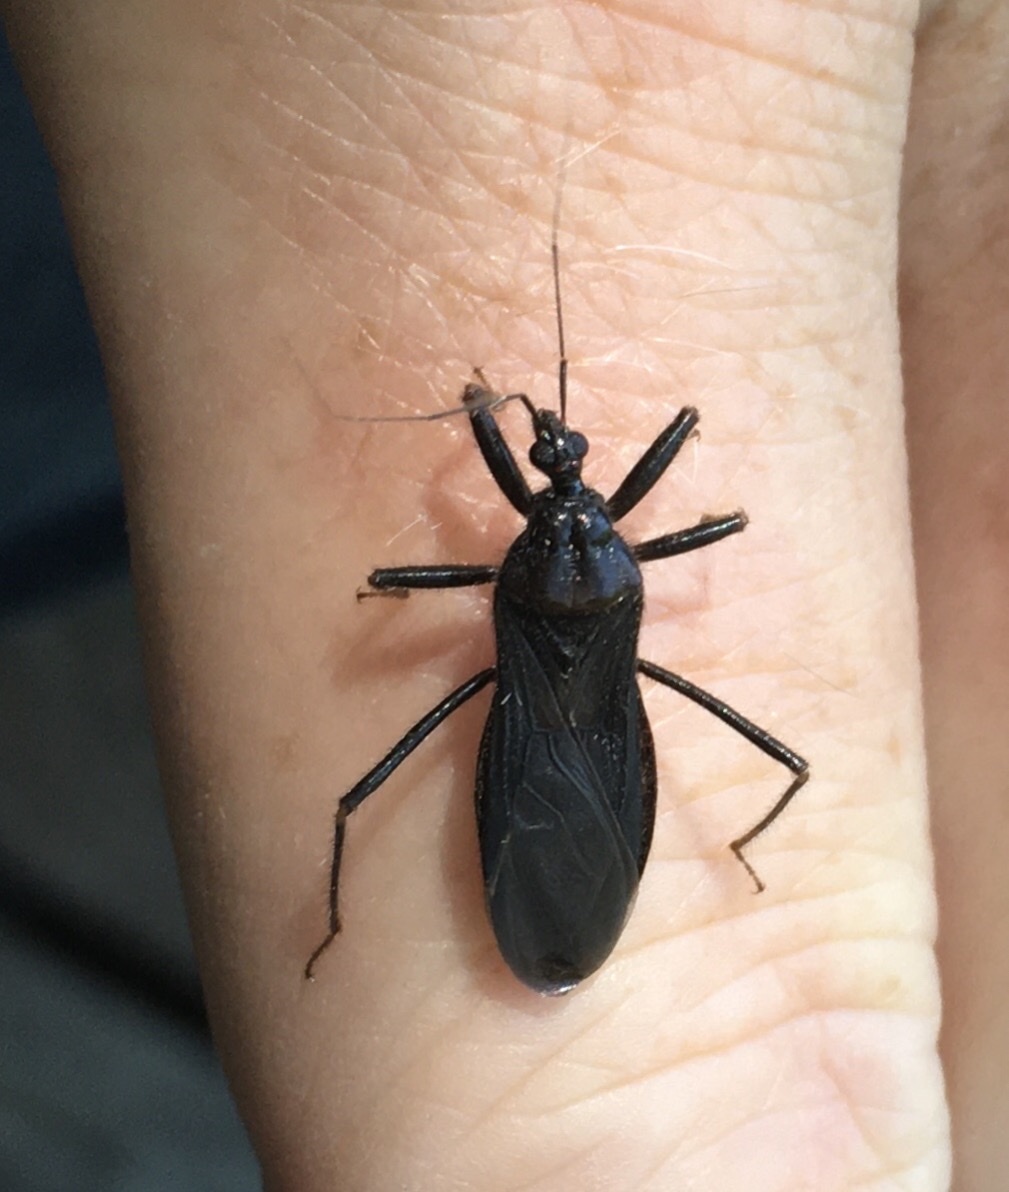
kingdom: Animalia
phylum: Arthropoda
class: Insecta
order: Hemiptera
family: Reduviidae
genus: Reduvius
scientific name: Reduvius personatus
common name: Masked hunter
